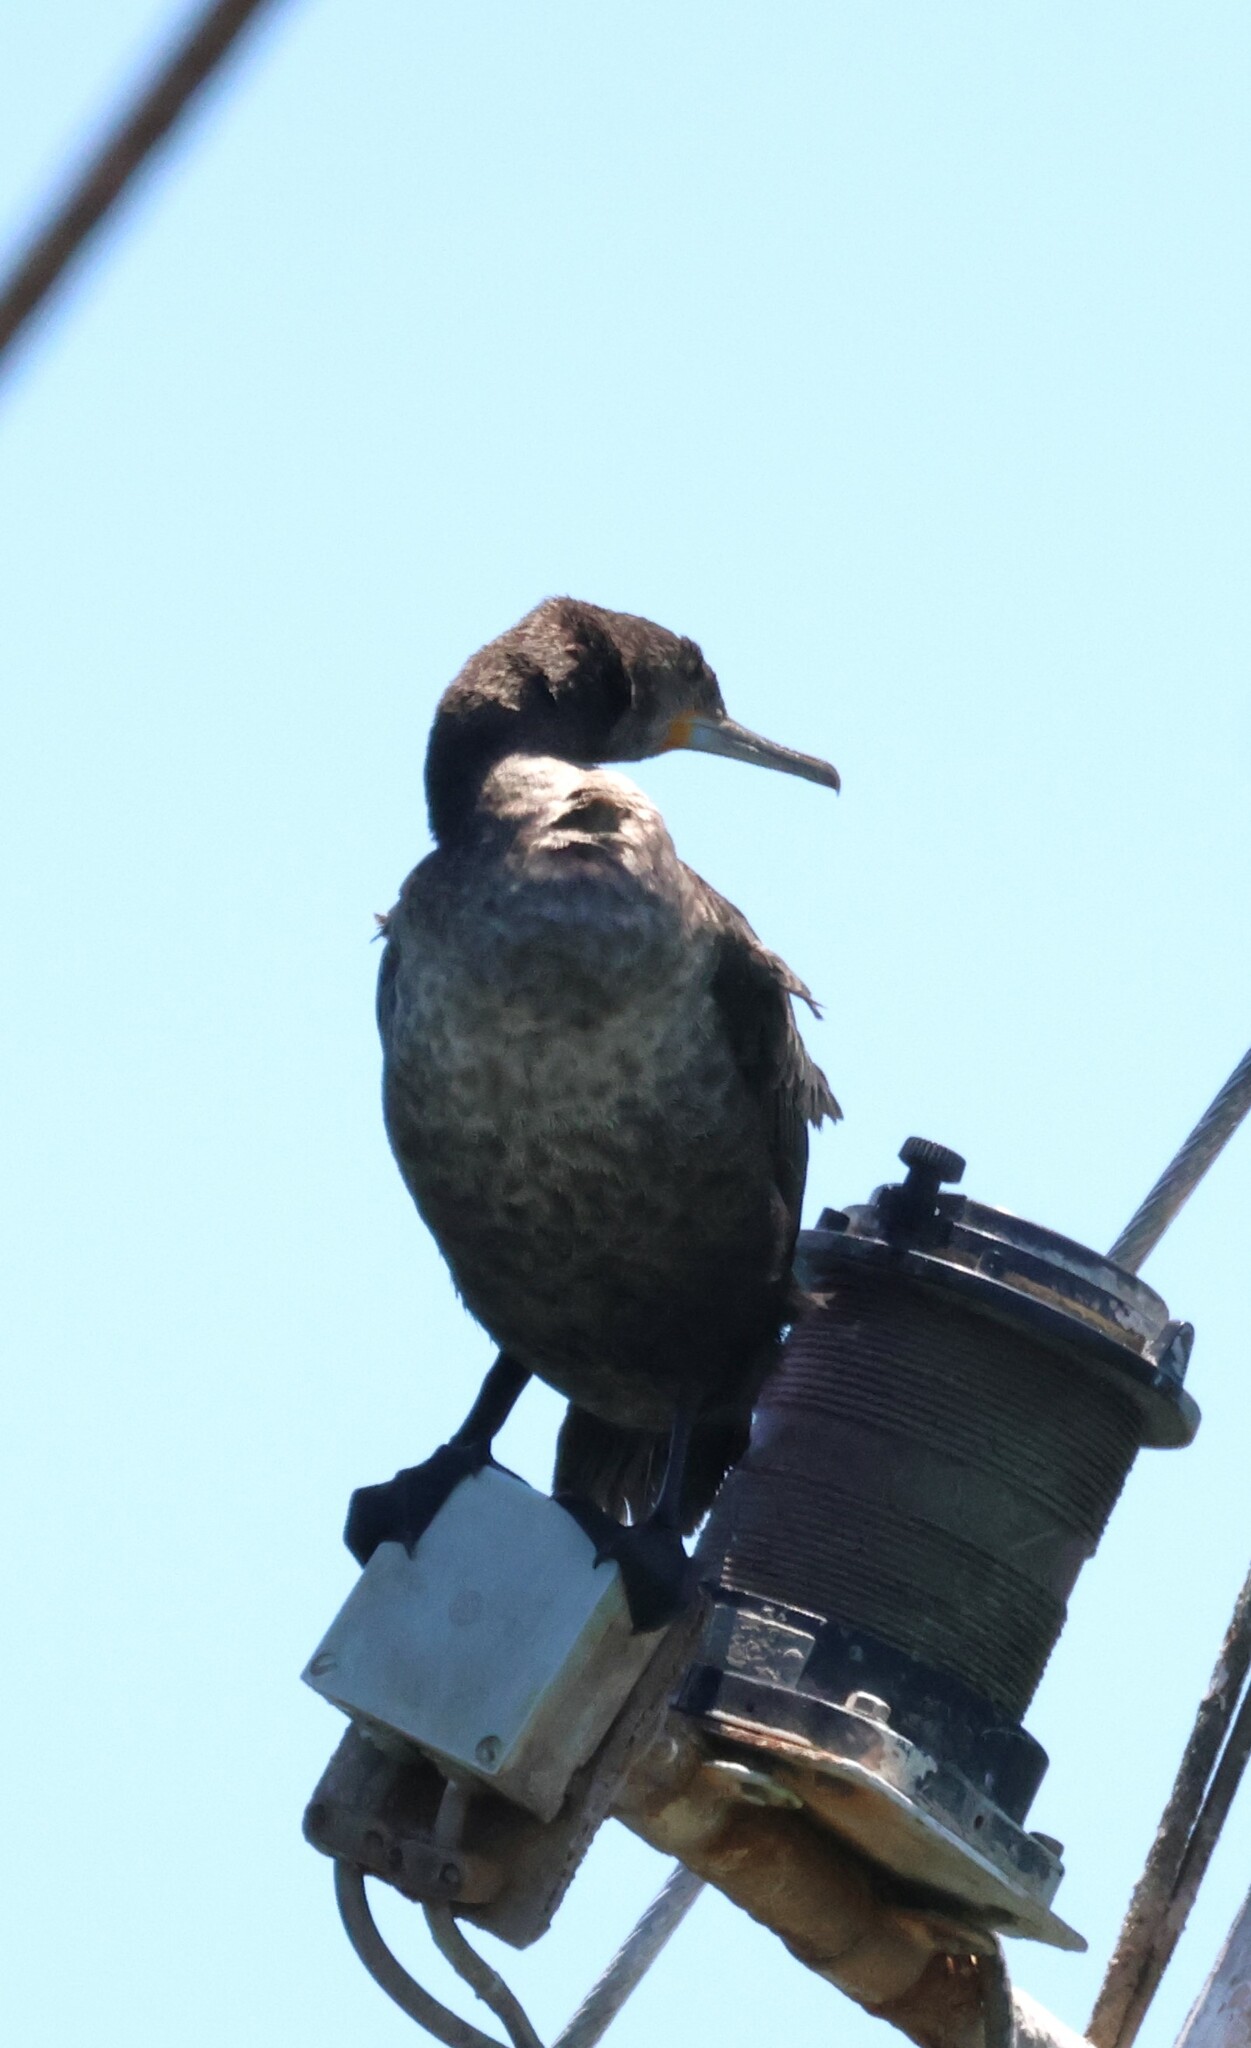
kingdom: Animalia
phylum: Chordata
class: Aves
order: Suliformes
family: Phalacrocoracidae
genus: Phalacrocorax
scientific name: Phalacrocorax capensis
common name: Cape cormorant
